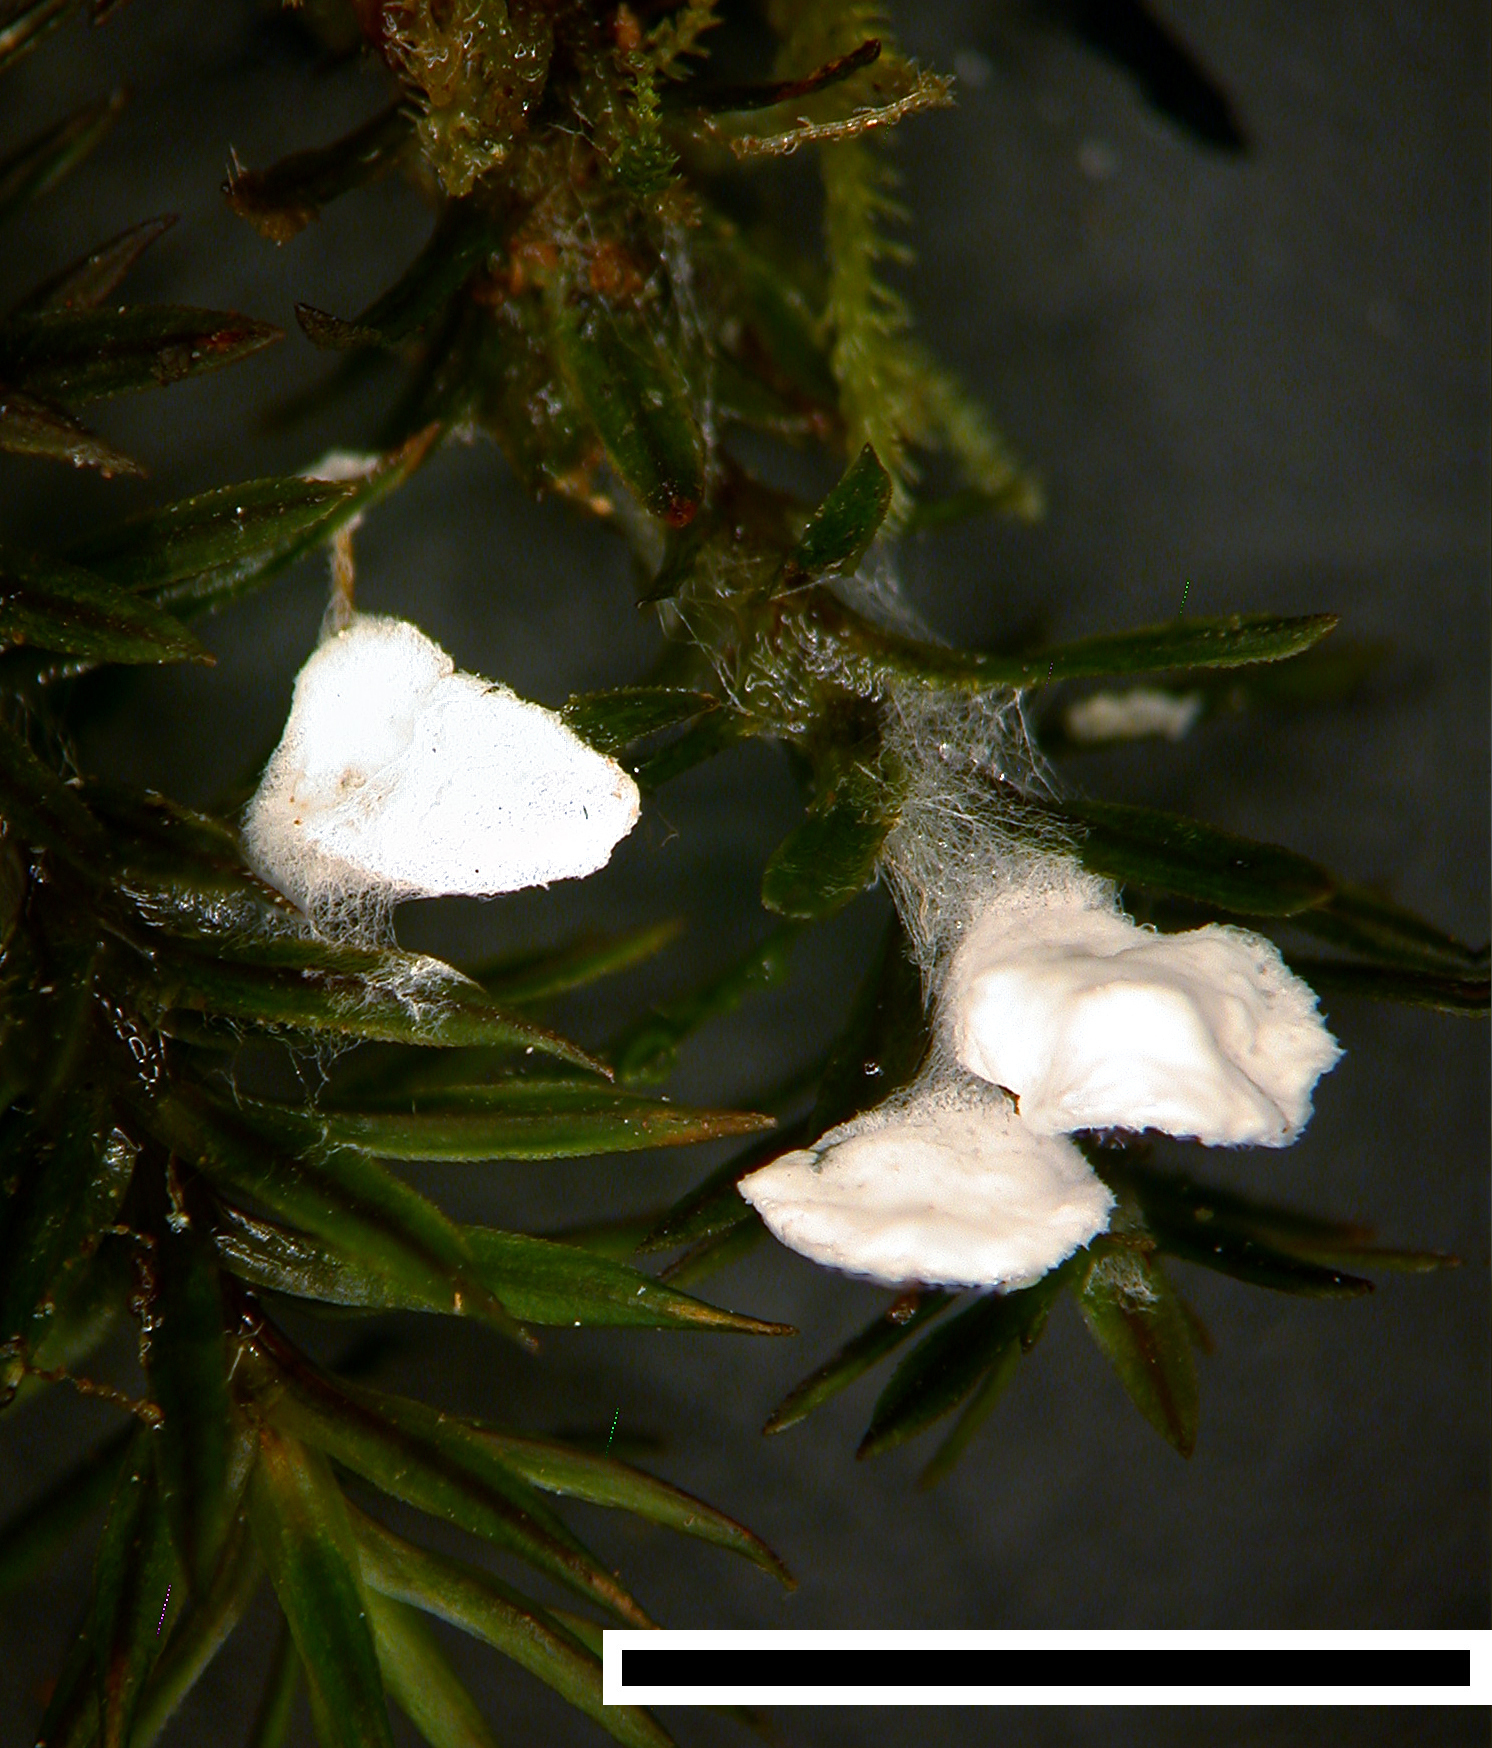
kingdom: Fungi
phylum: Basidiomycota
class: Agaricomycetes
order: Hymenochaetales
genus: Muscinupta
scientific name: Muscinupta laevis
